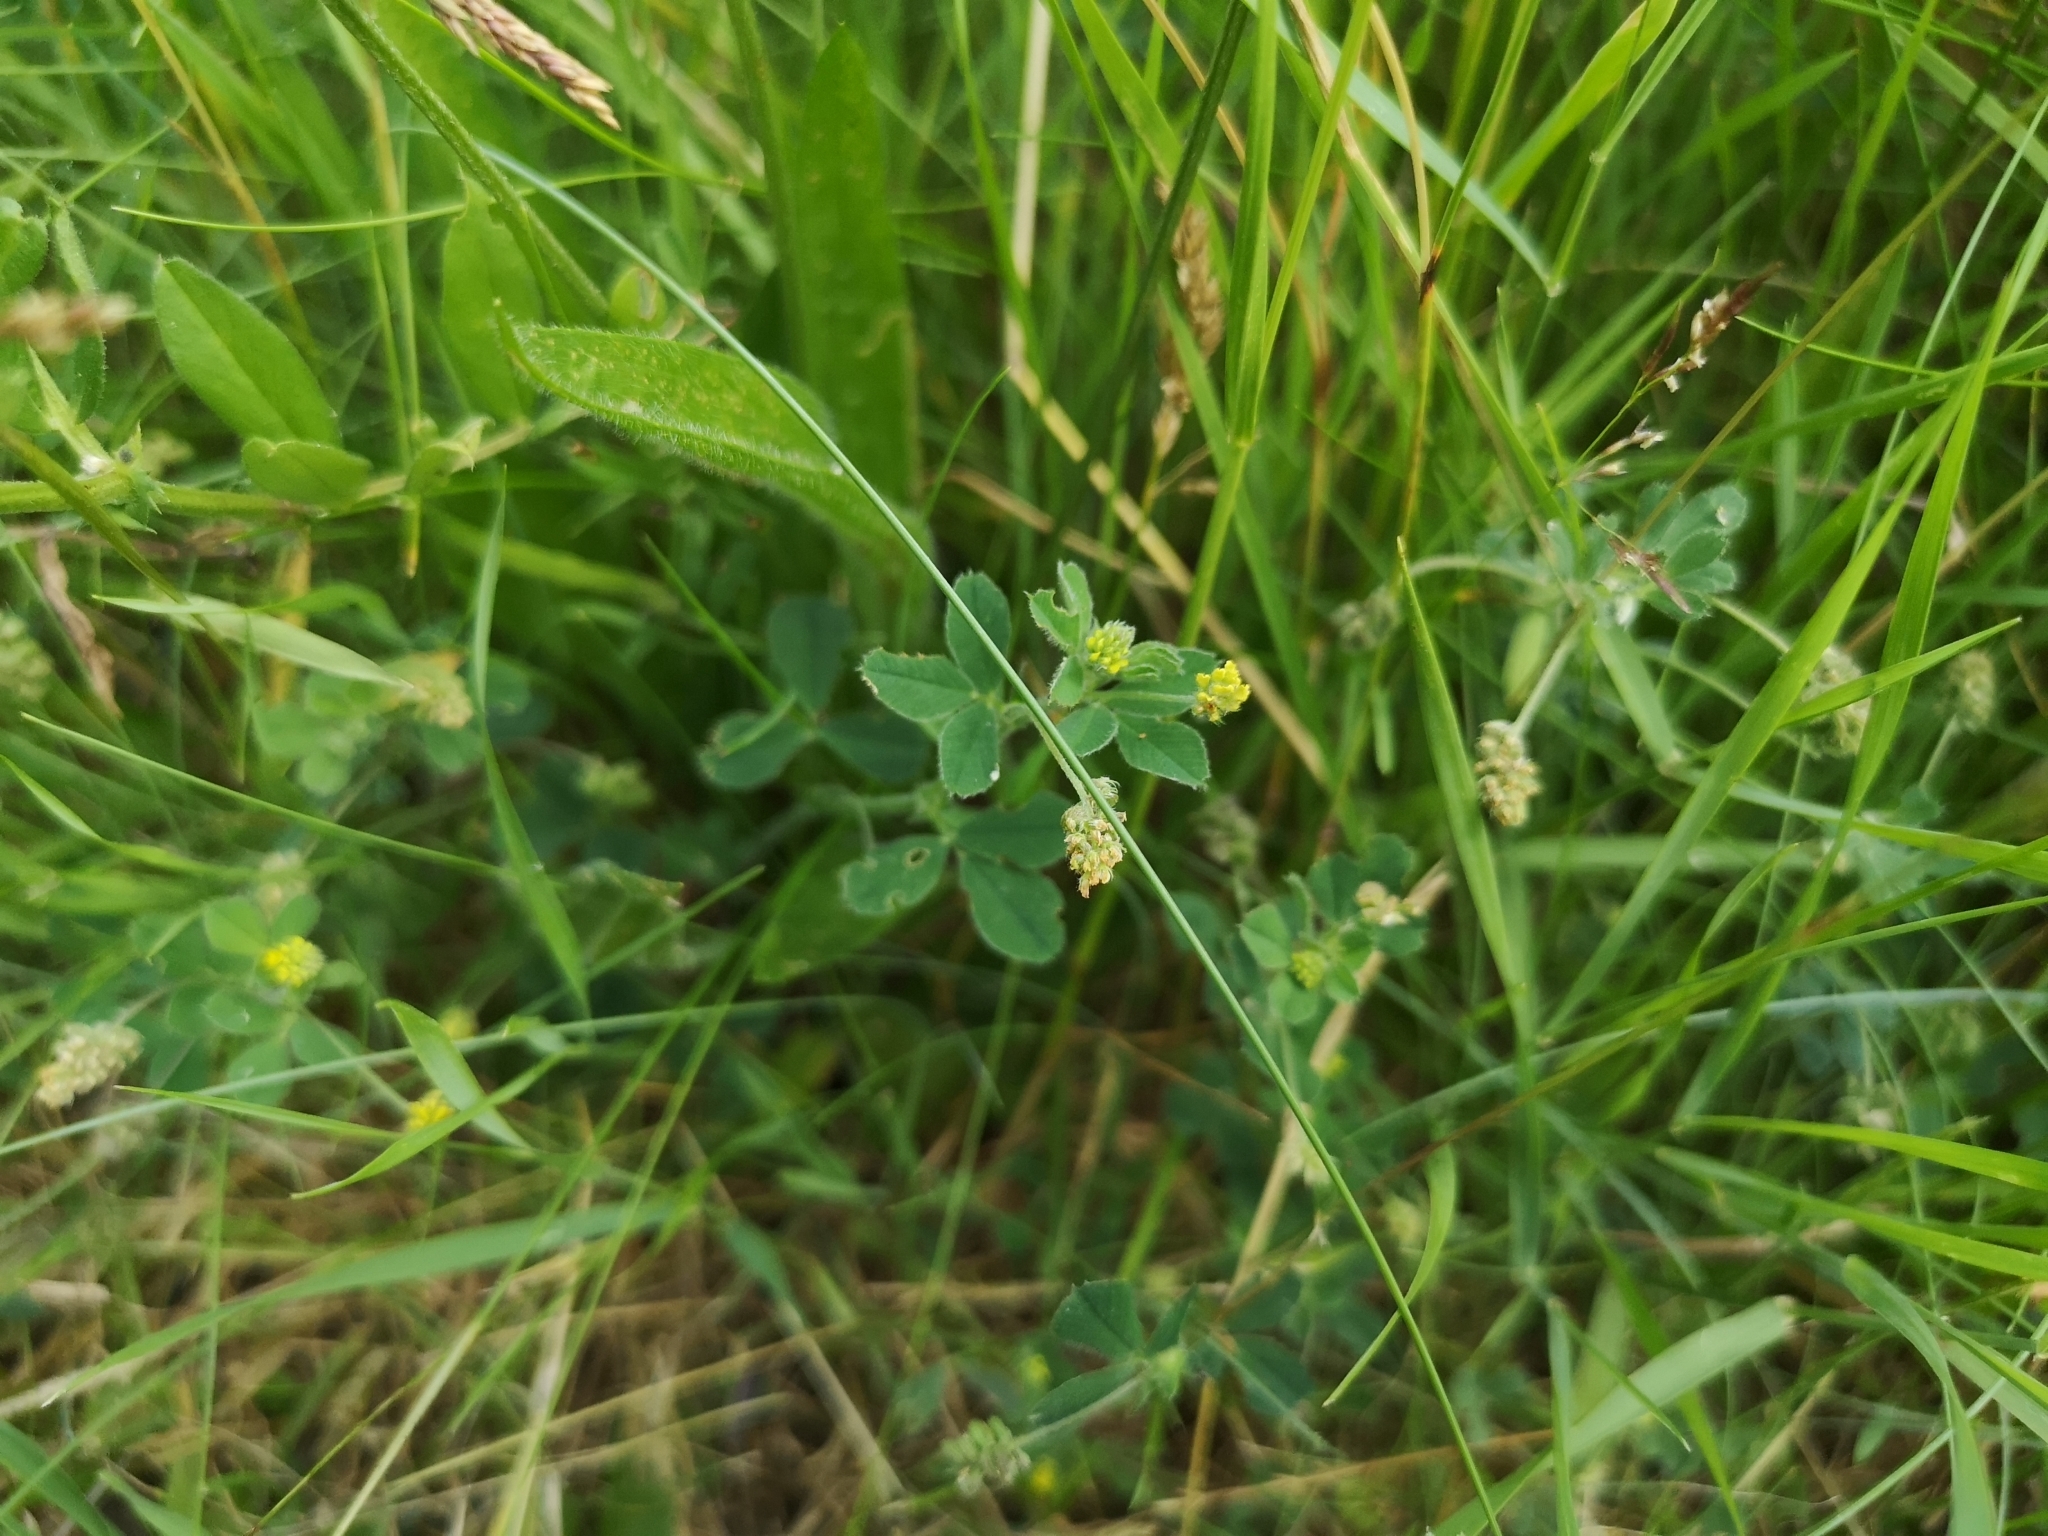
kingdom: Plantae
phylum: Tracheophyta
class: Magnoliopsida
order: Fabales
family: Fabaceae
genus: Medicago
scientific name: Medicago lupulina
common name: Black medick
